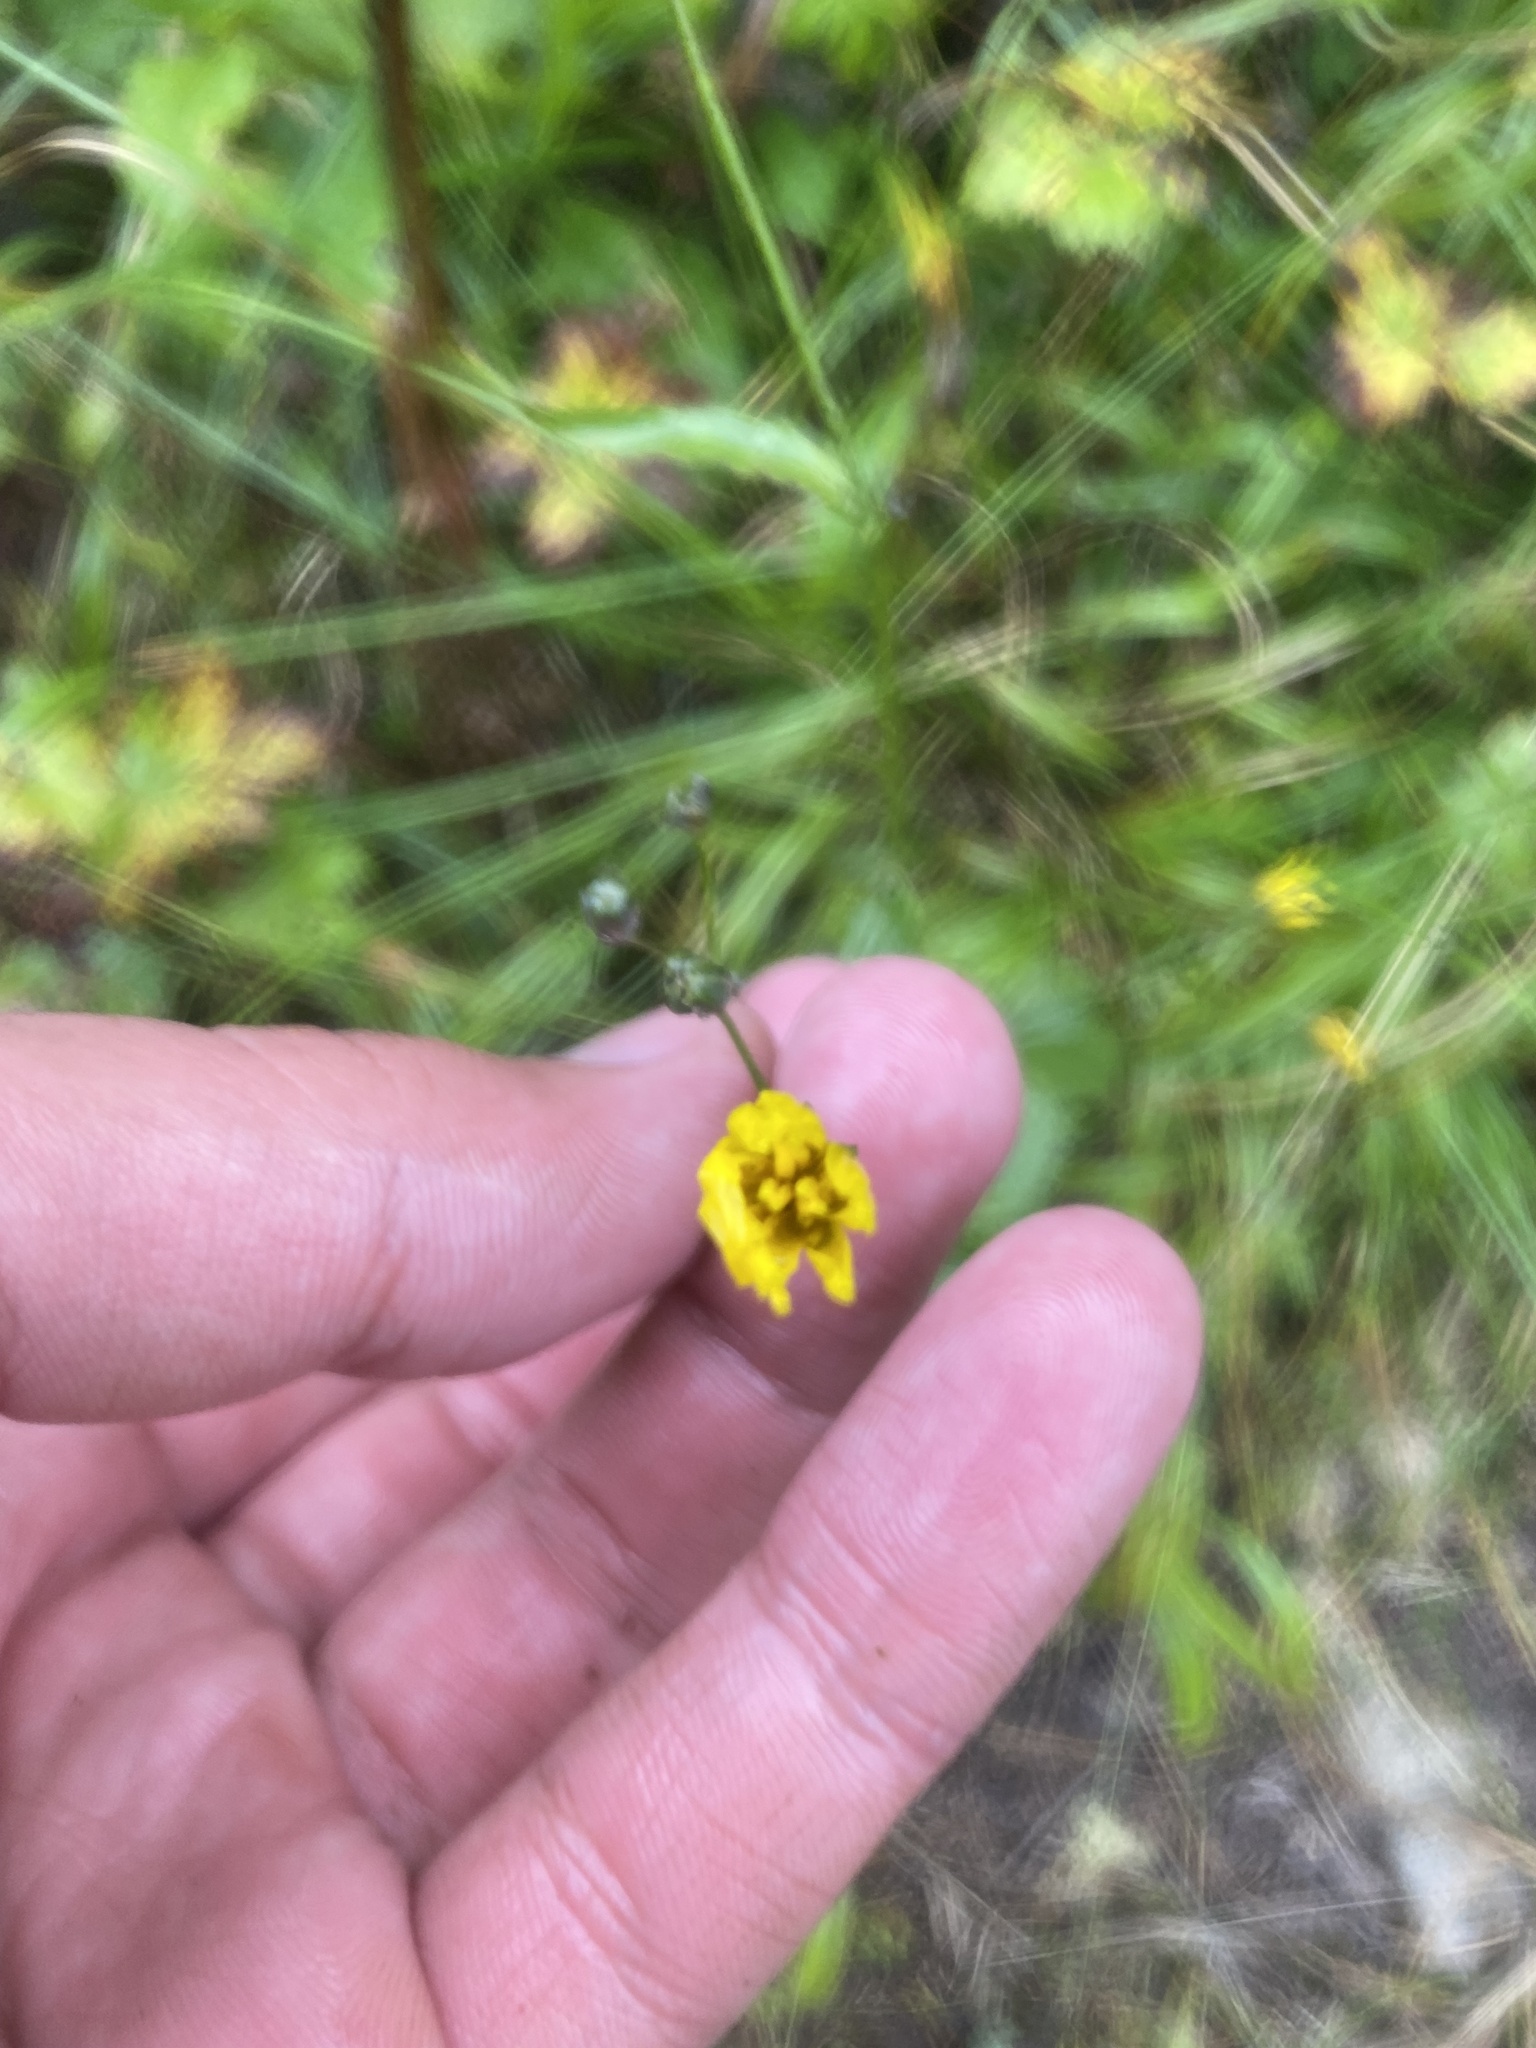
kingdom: Plantae
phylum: Tracheophyta
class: Magnoliopsida
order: Asterales
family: Asteraceae
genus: Lapsana
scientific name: Lapsana communis
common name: Nipplewort
